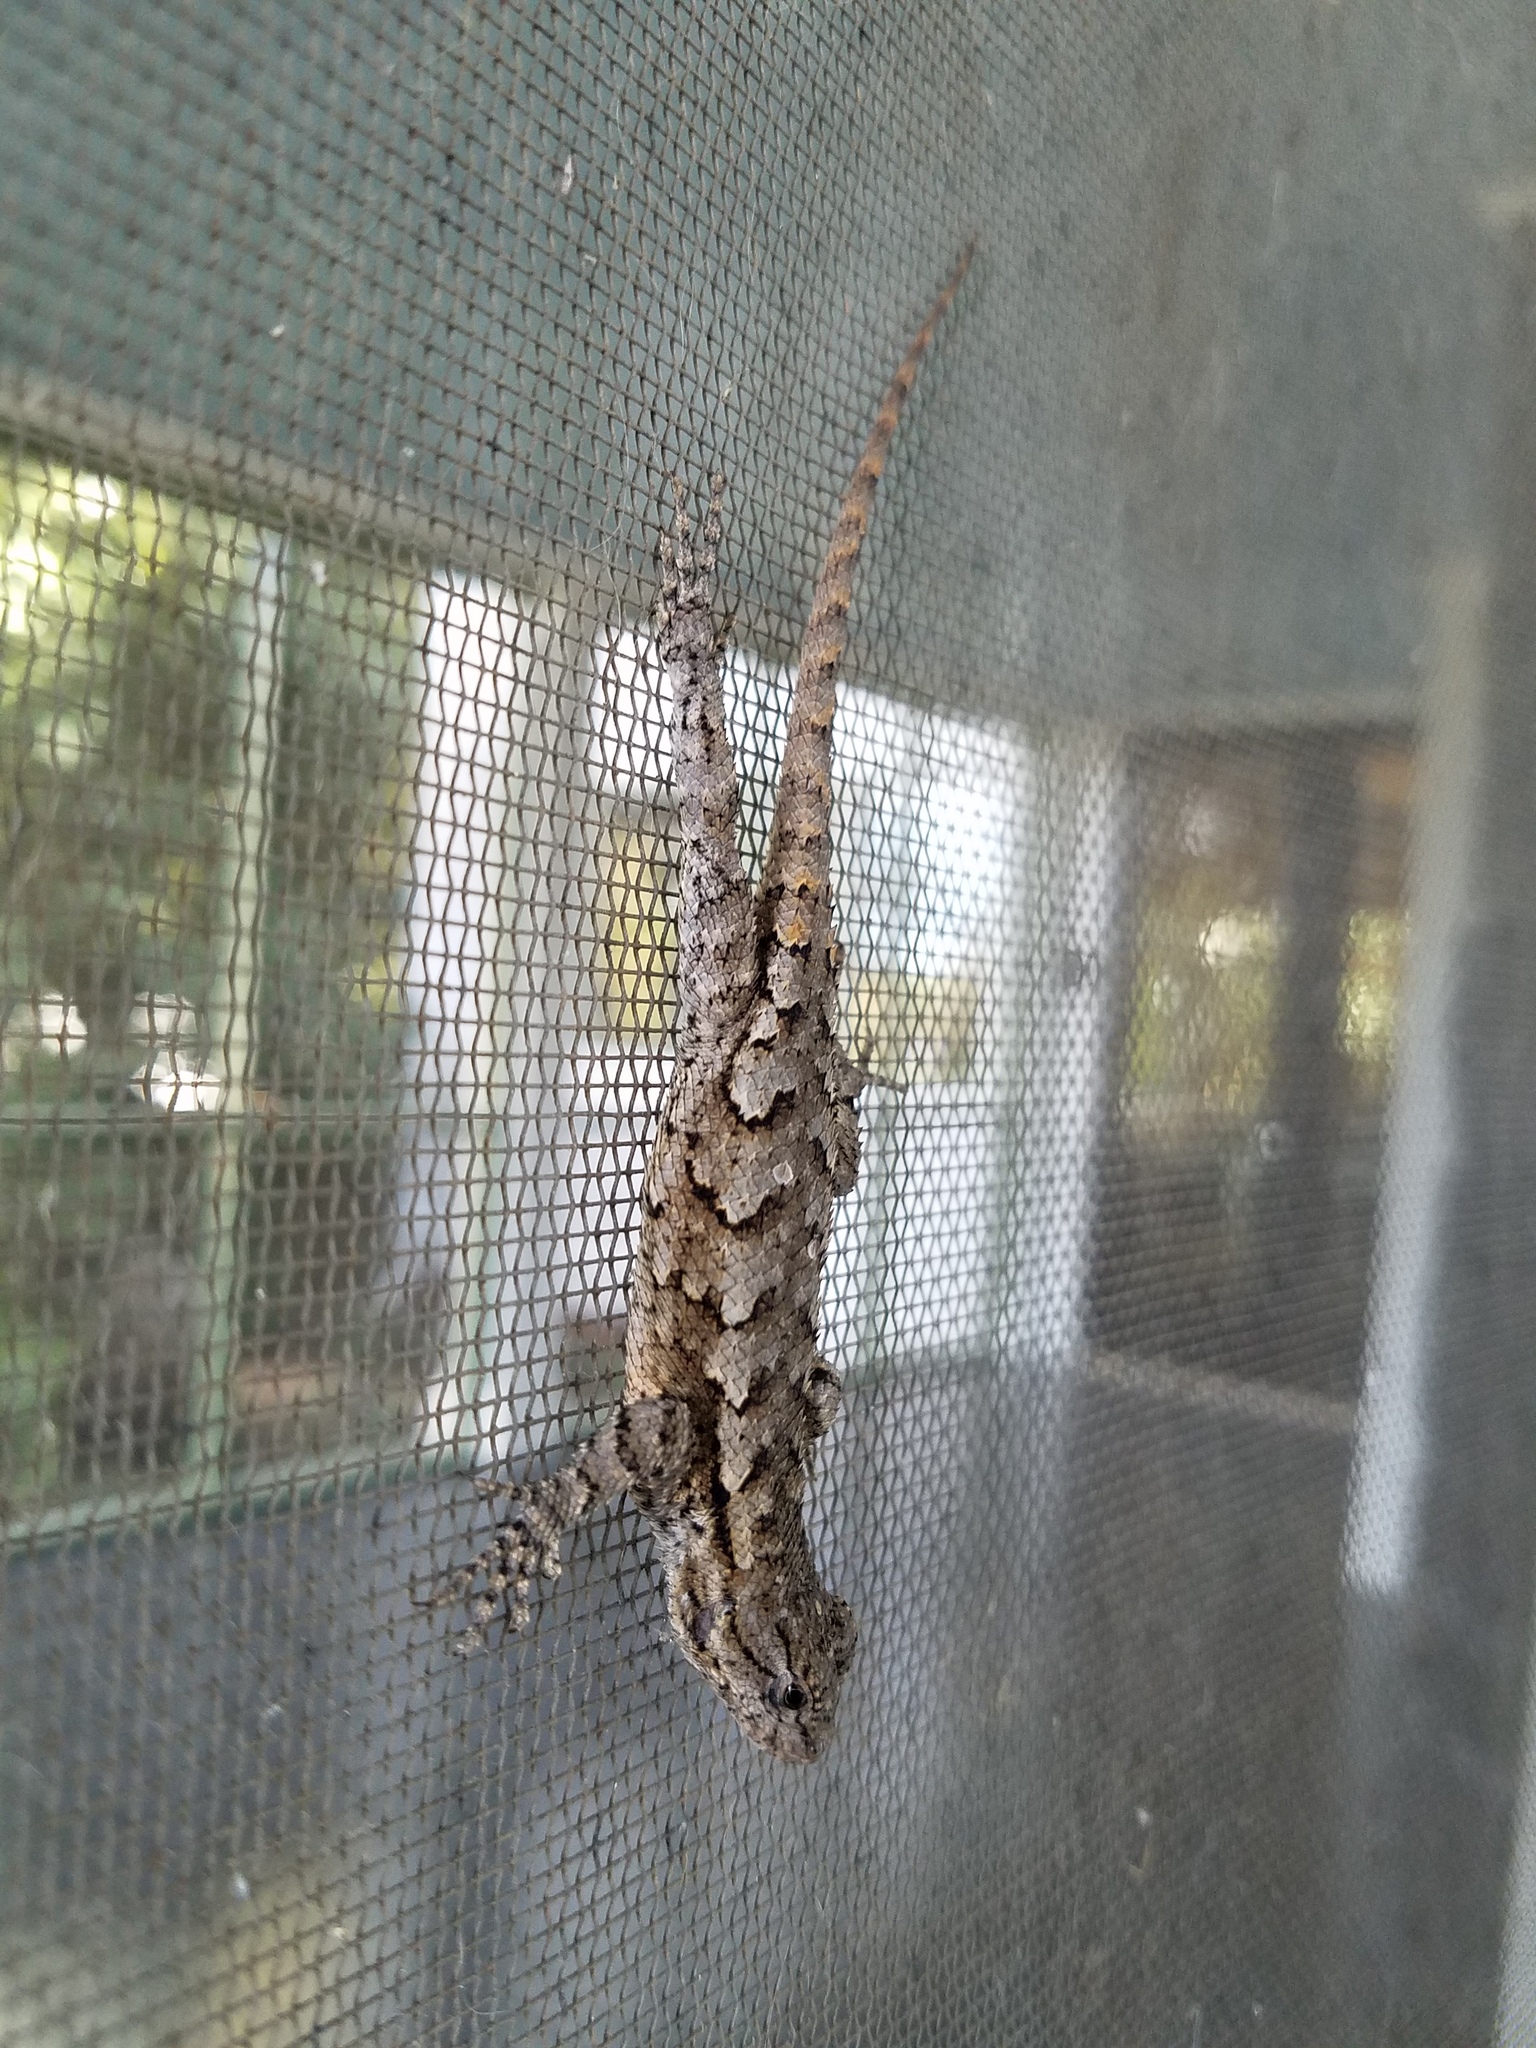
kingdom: Animalia
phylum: Chordata
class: Squamata
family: Phrynosomatidae
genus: Sceloporus
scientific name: Sceloporus undulatus
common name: Eastern fence lizard
